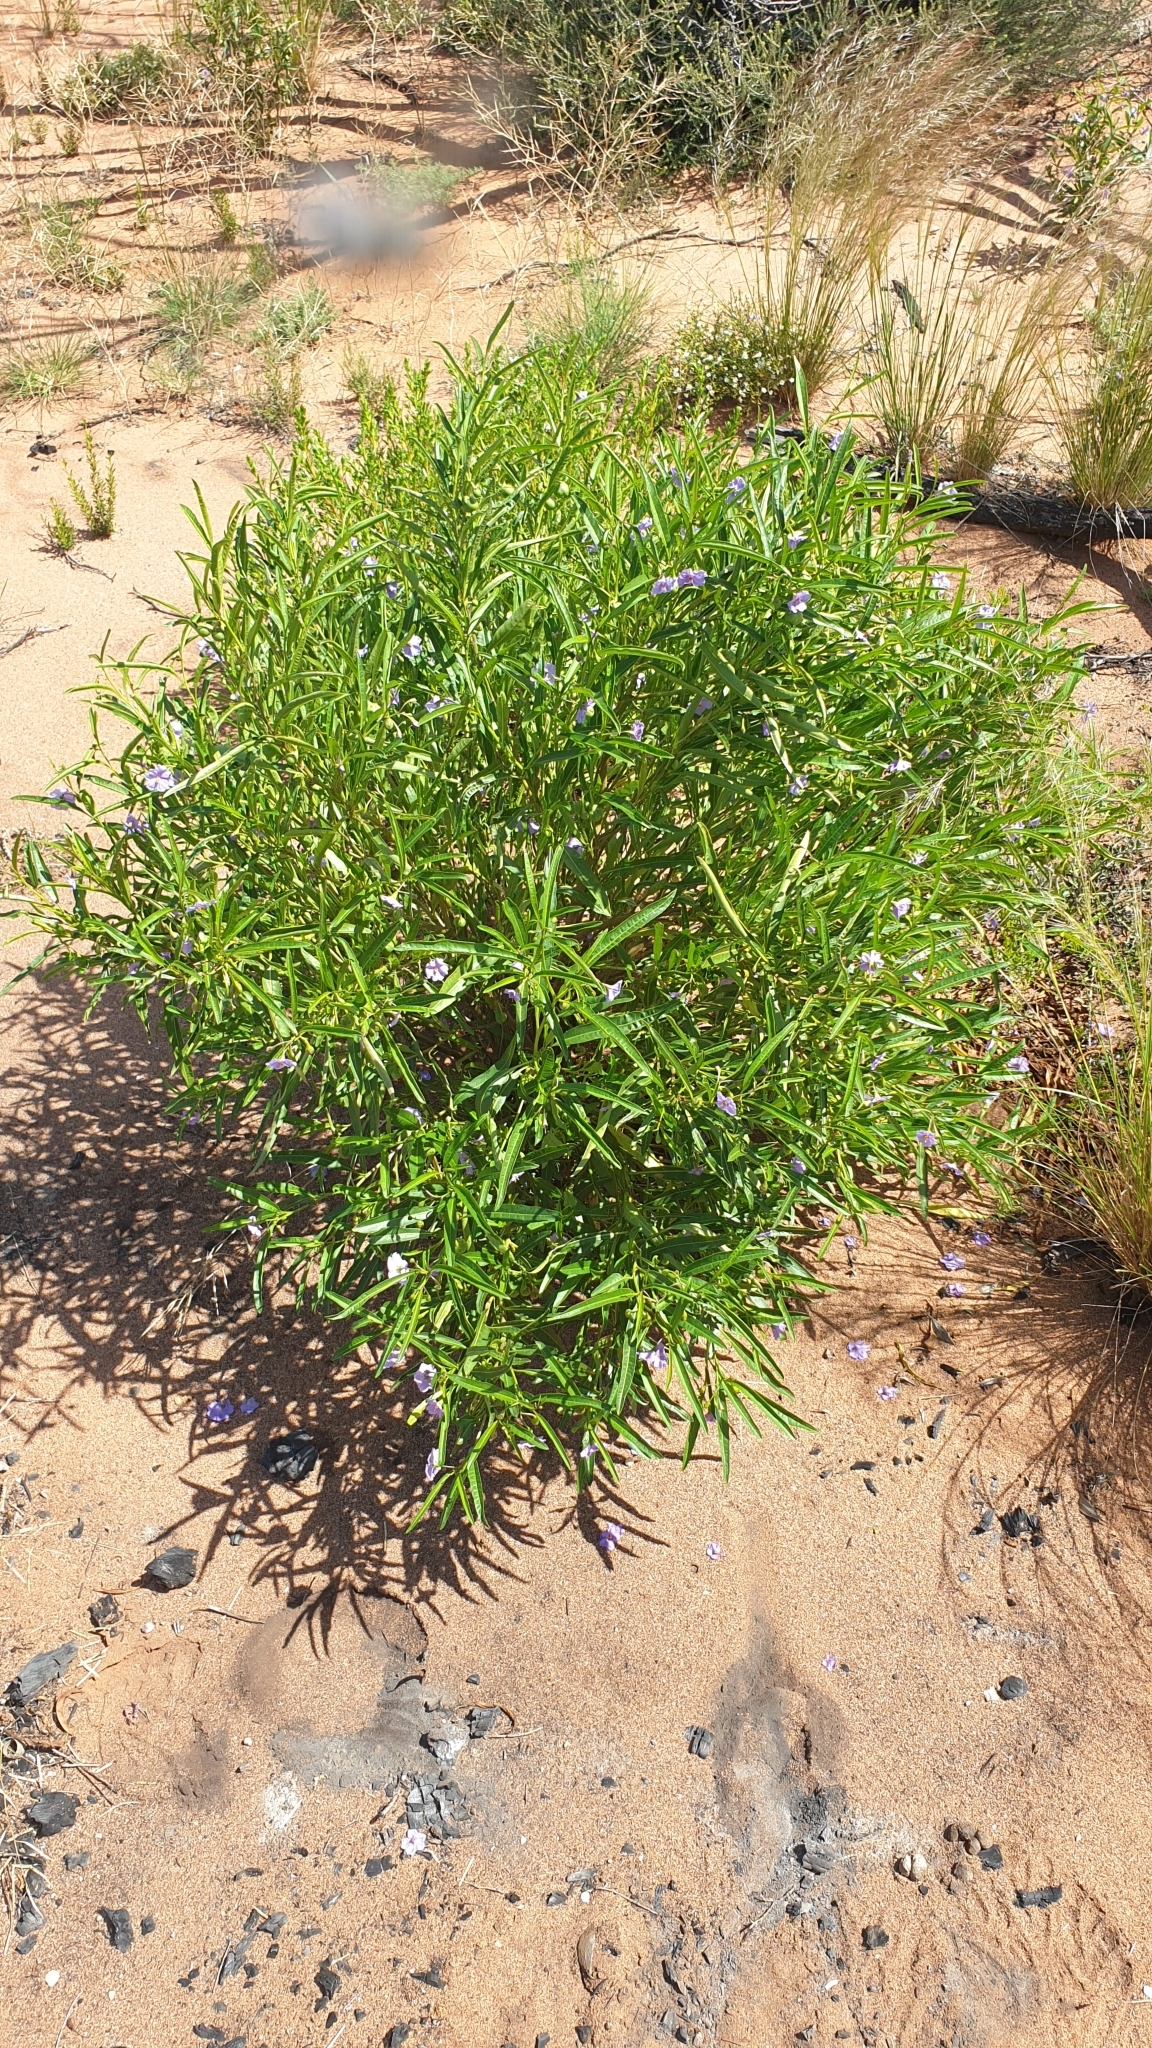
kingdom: Plantae
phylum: Tracheophyta
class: Magnoliopsida
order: Solanales
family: Solanaceae
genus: Solanum
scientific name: Solanum simile
